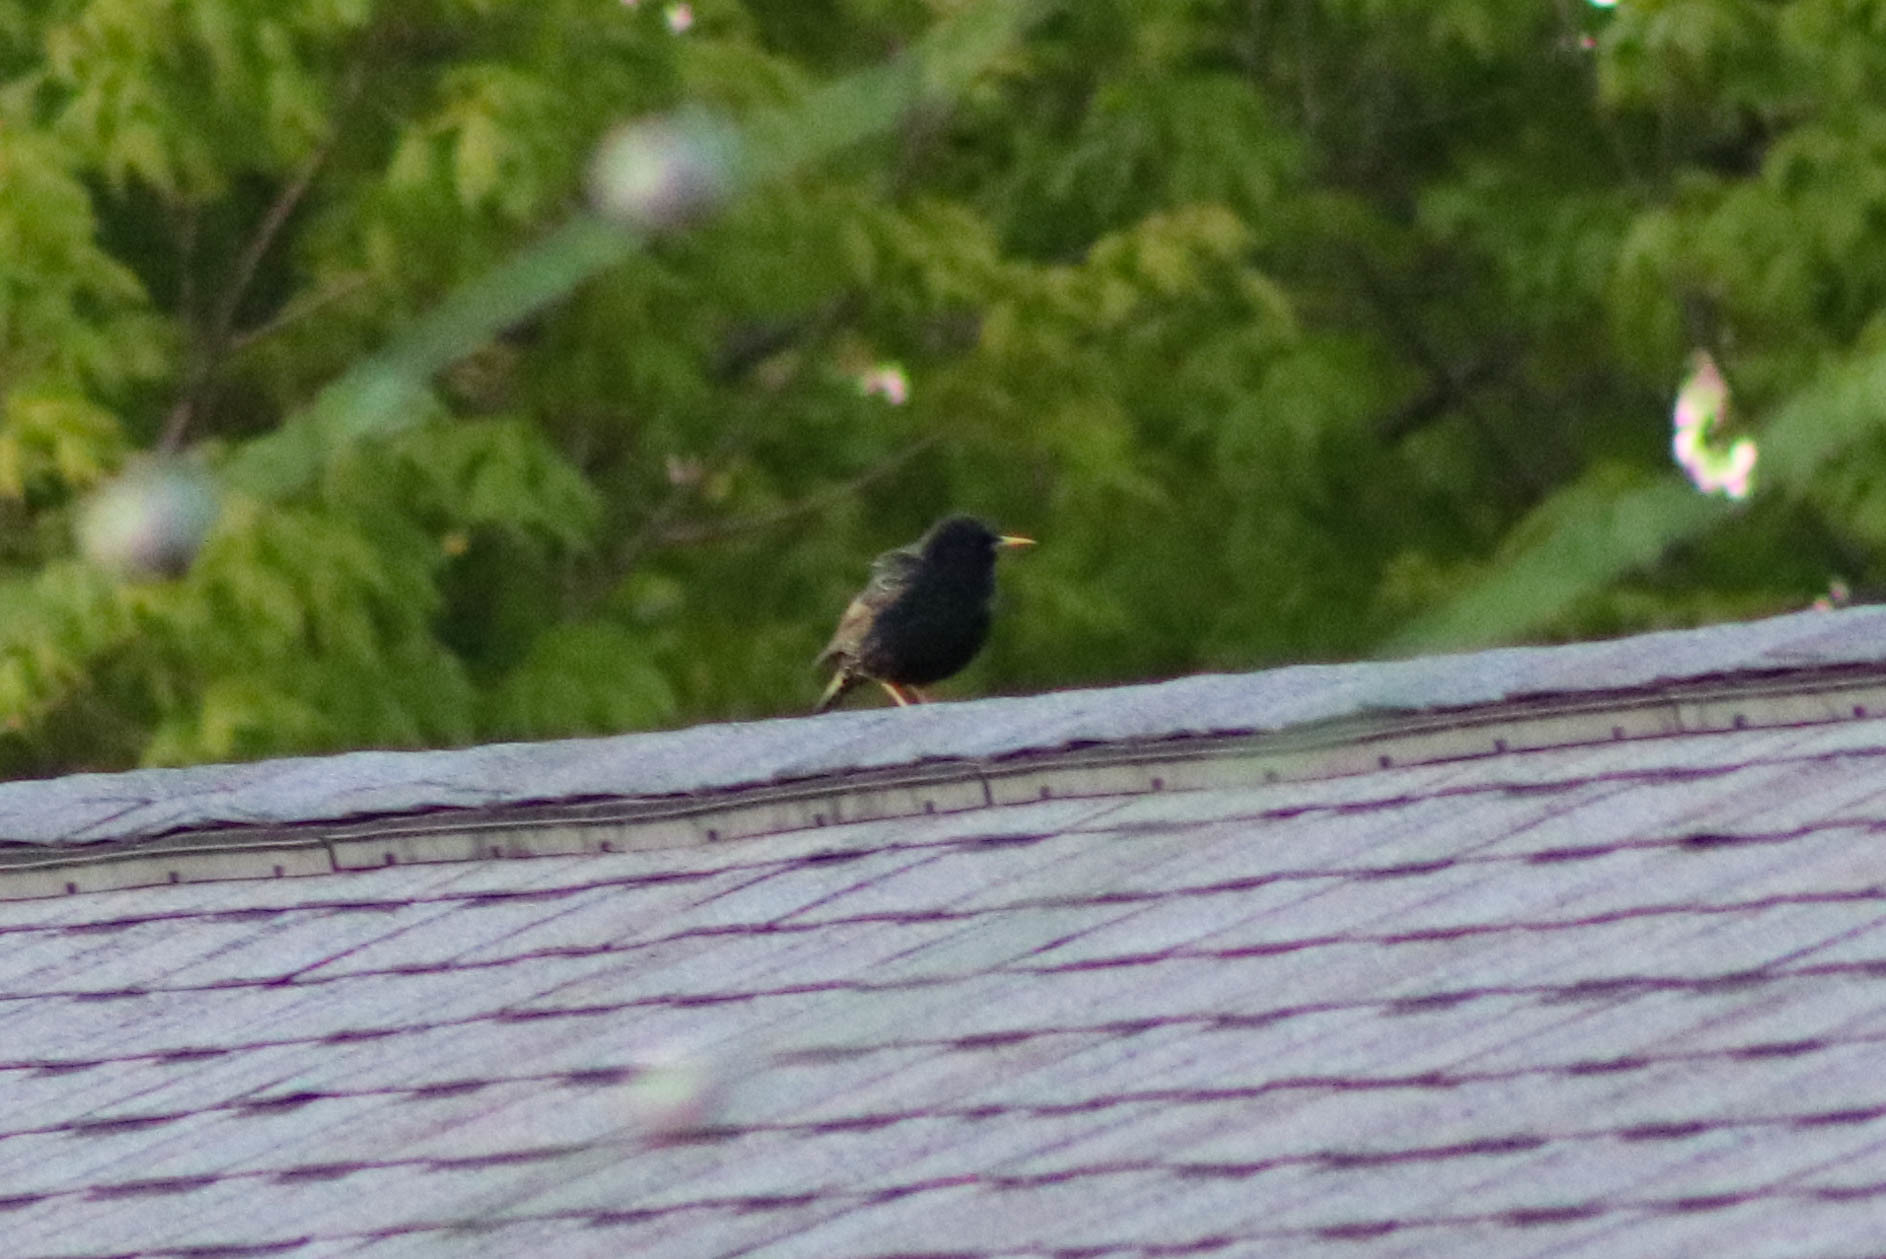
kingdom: Animalia
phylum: Chordata
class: Aves
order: Passeriformes
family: Sturnidae
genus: Sturnus
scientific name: Sturnus vulgaris
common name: Common starling
